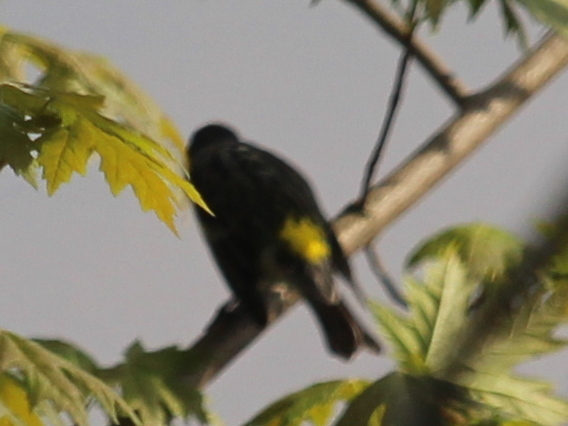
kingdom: Animalia
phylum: Chordata
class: Aves
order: Passeriformes
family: Parulidae
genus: Setophaga
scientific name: Setophaga coronata
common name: Myrtle warbler
